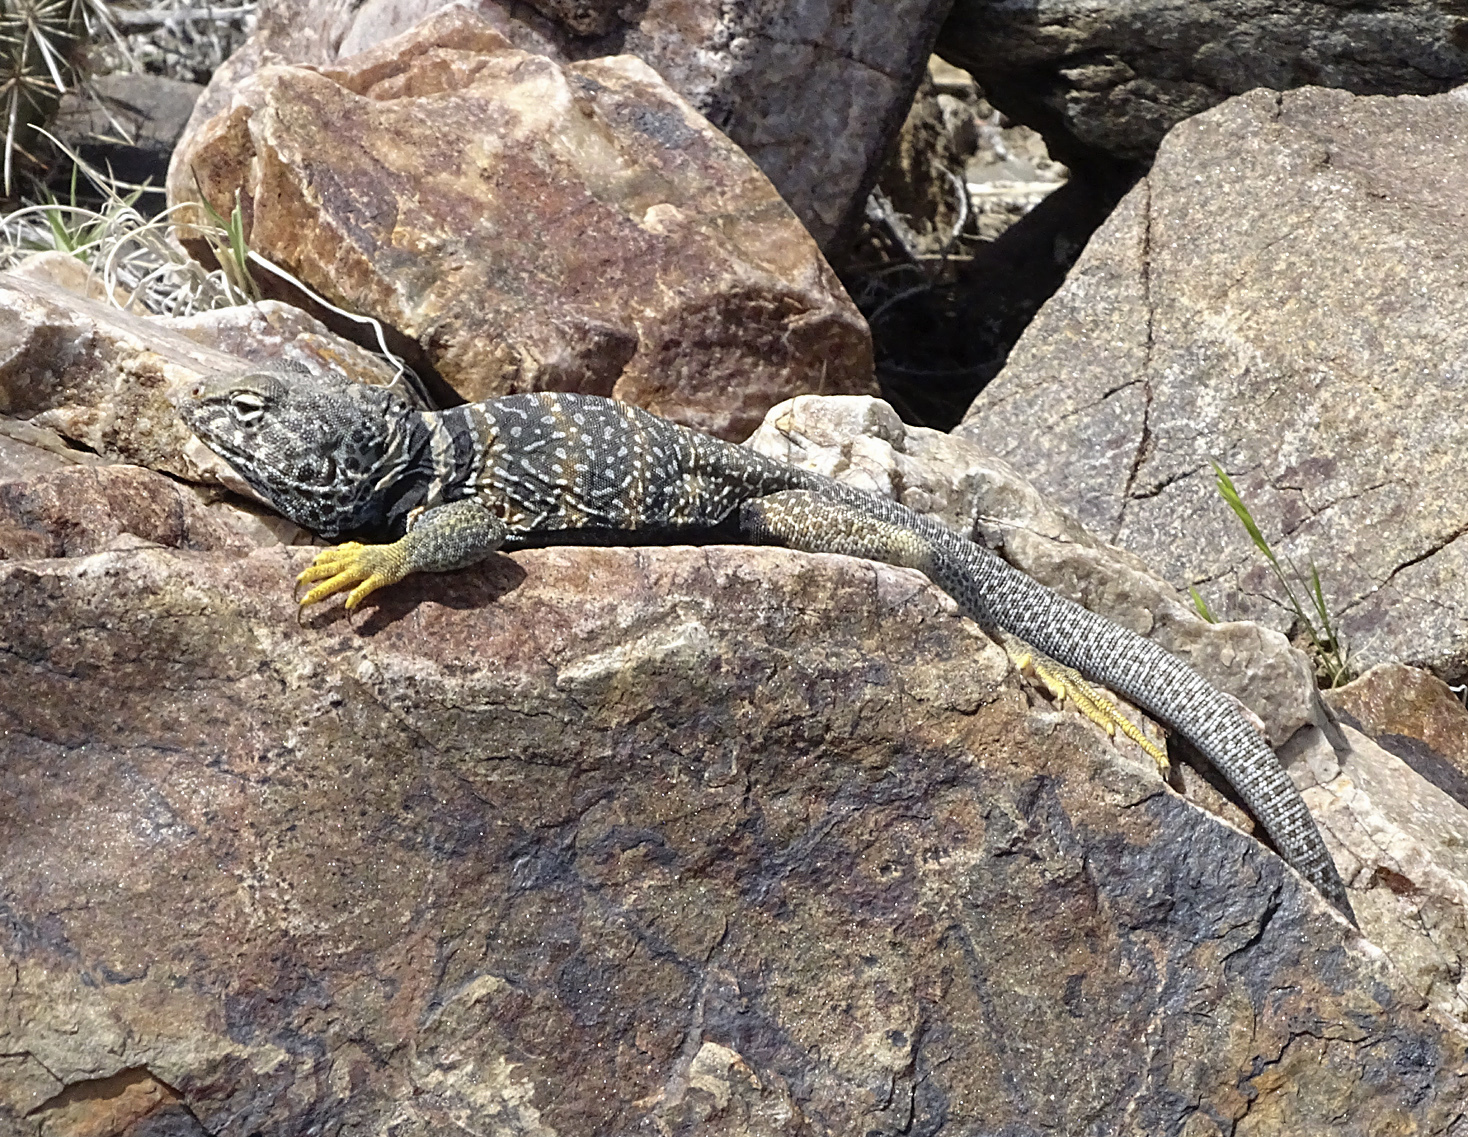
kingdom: Animalia
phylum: Chordata
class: Squamata
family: Crotaphytidae
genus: Crotaphytus
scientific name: Crotaphytus bicinctores
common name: Mojave black-collared lizard
